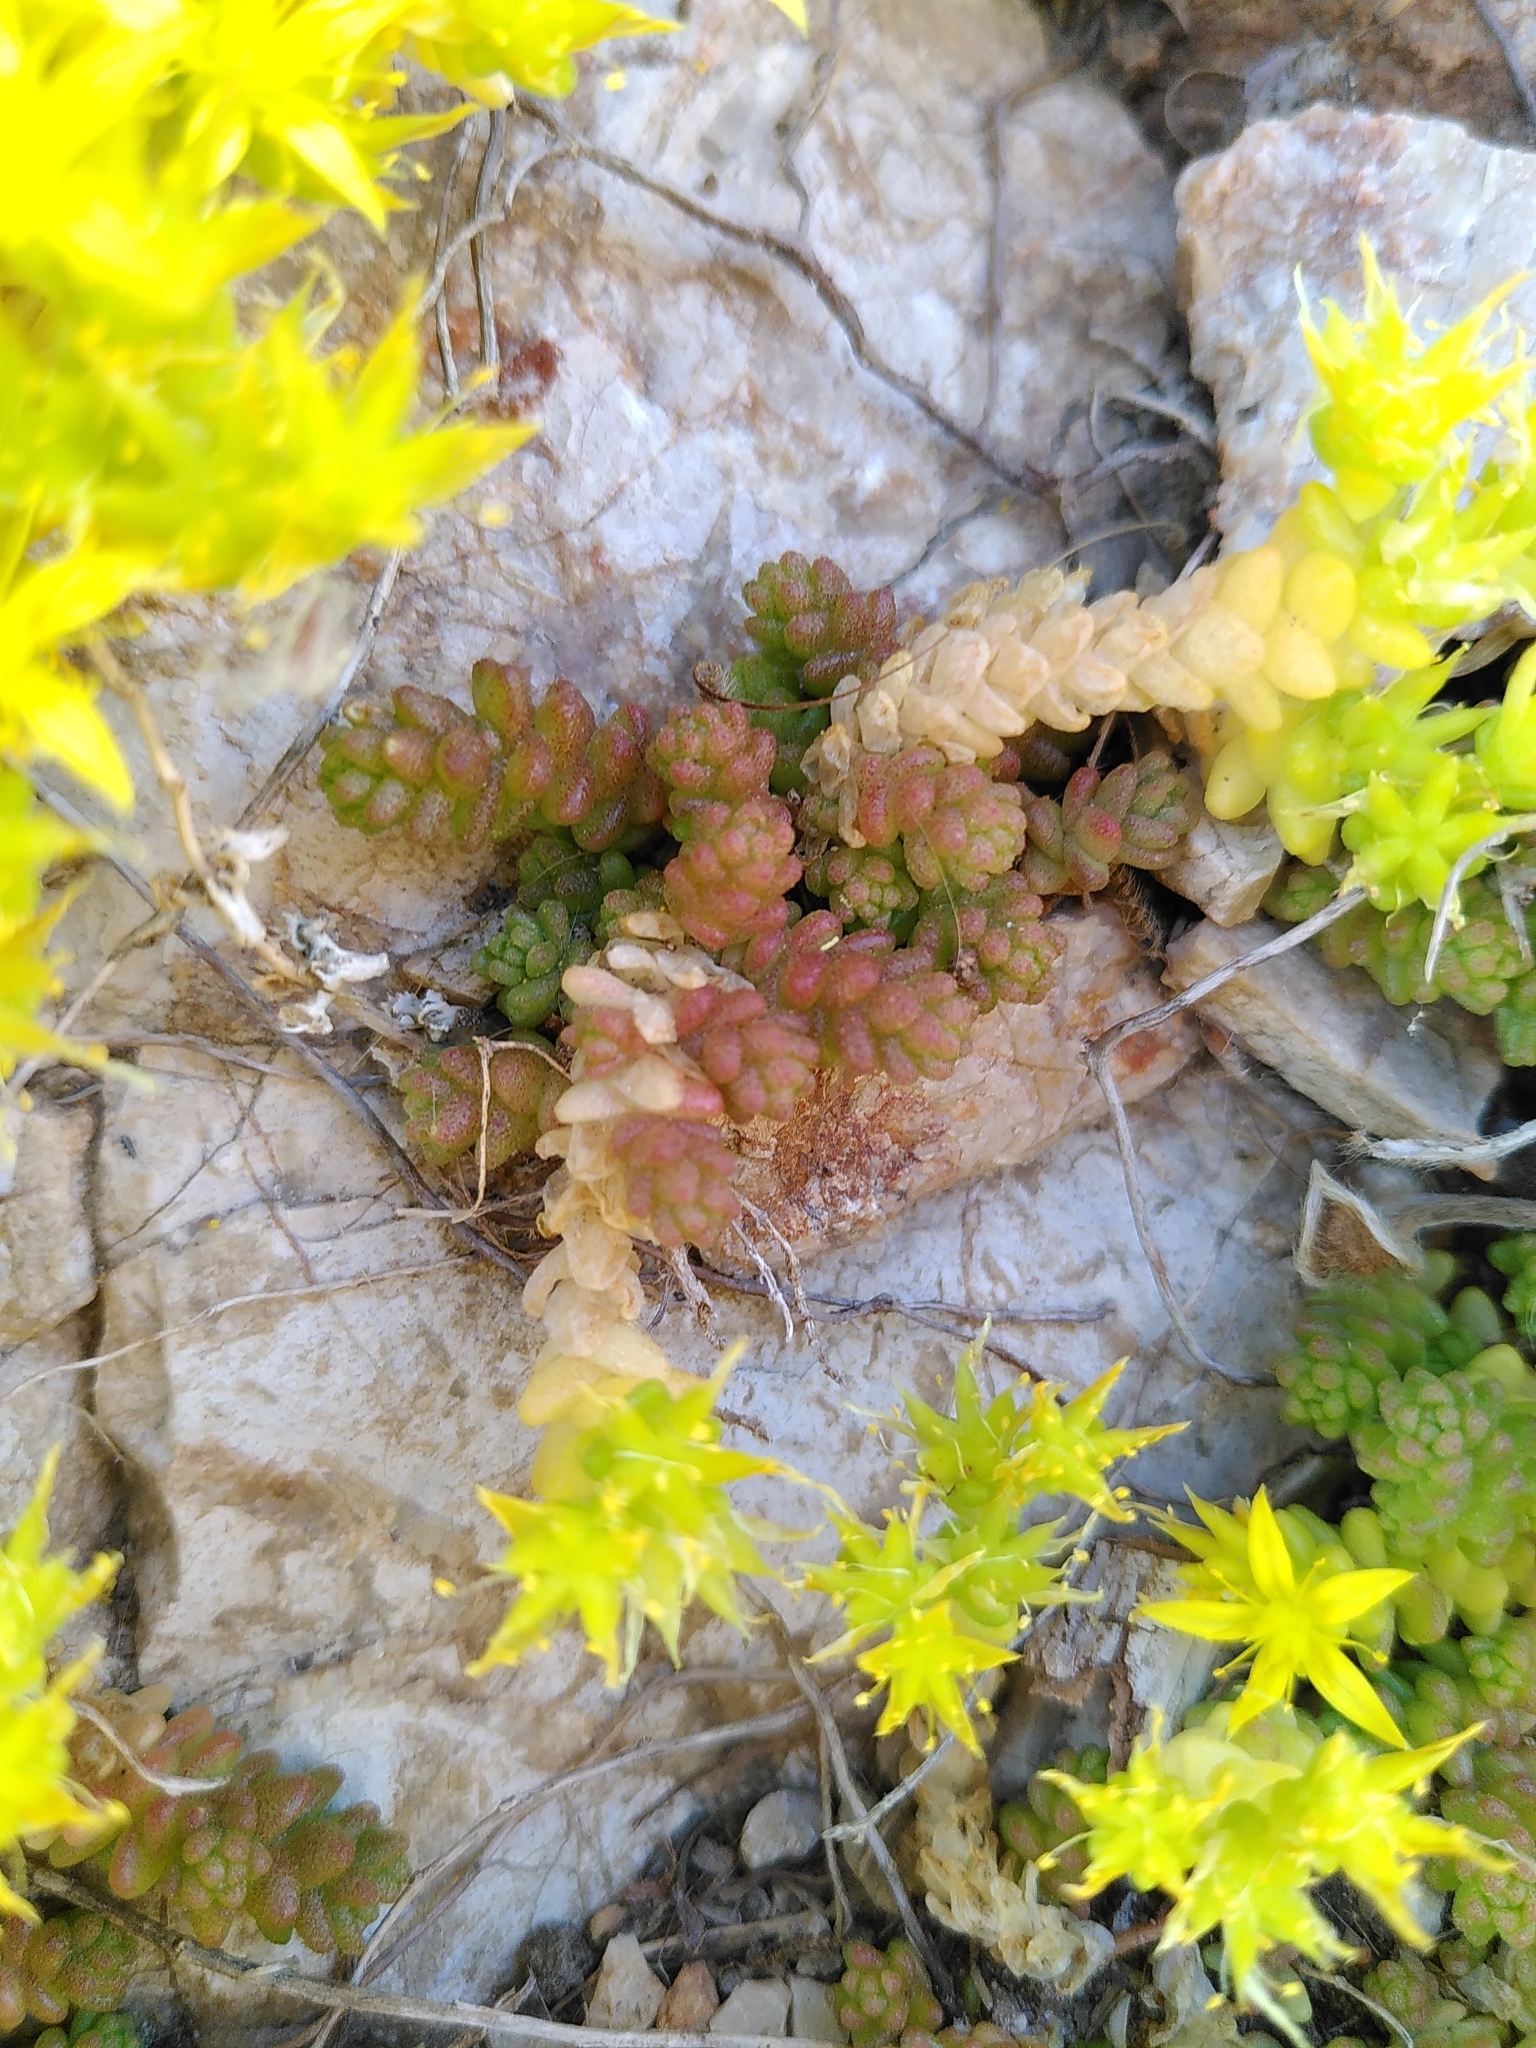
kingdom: Plantae
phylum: Tracheophyta
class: Magnoliopsida
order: Saxifragales
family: Crassulaceae
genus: Sedum
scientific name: Sedum acre
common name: Biting stonecrop
